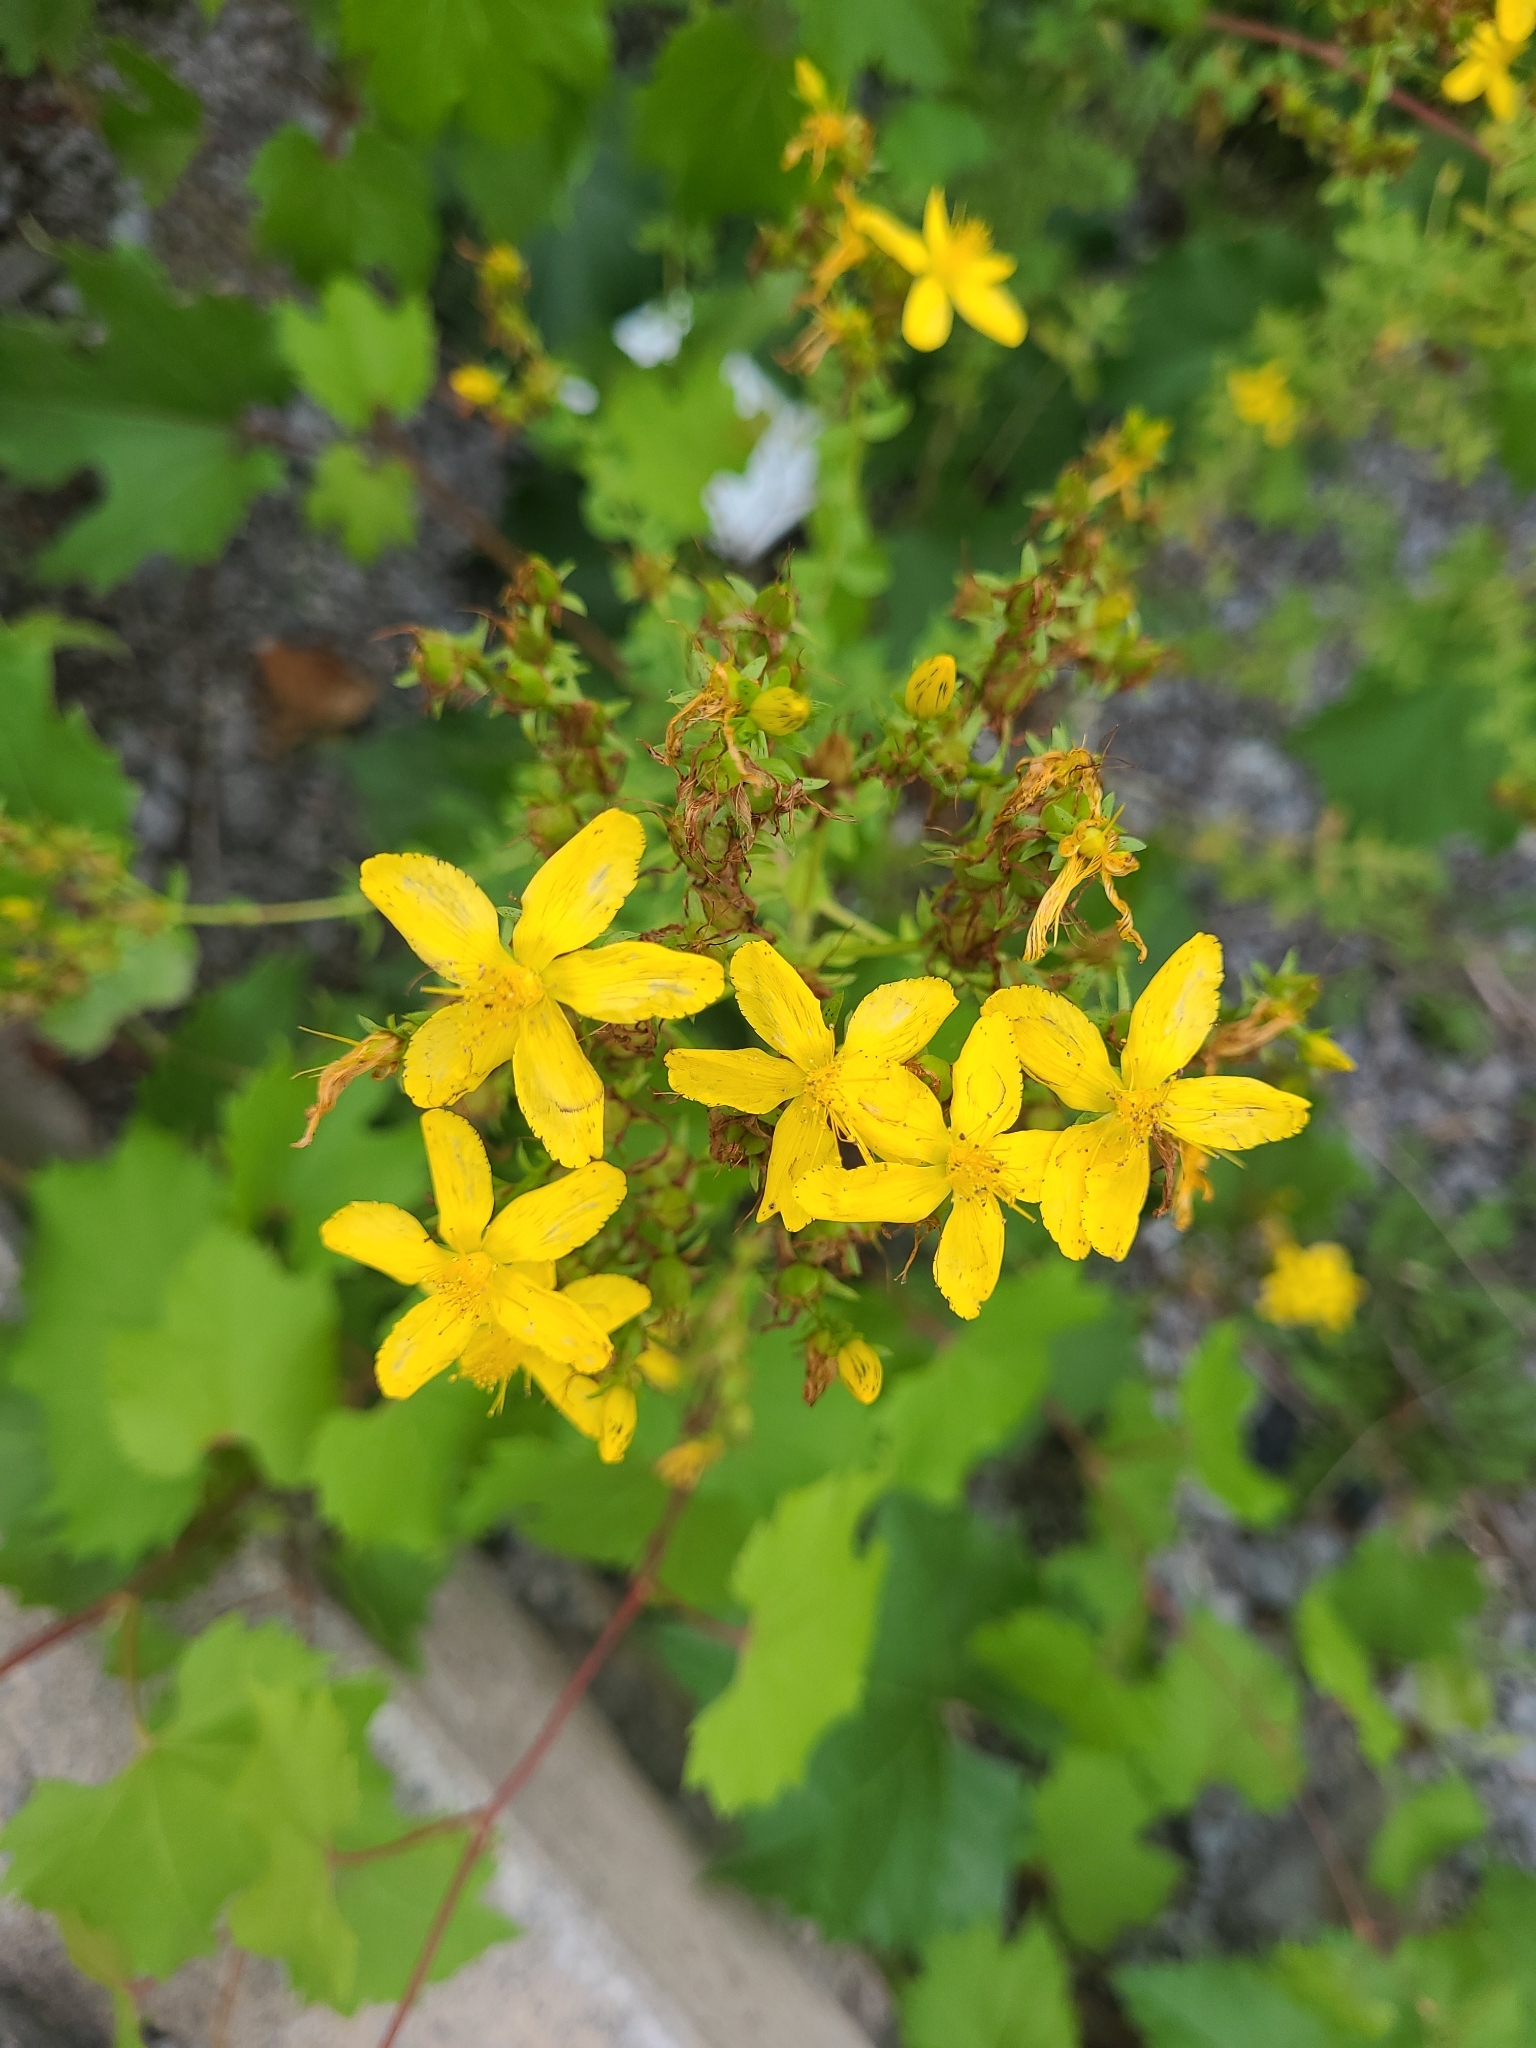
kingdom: Plantae
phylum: Tracheophyta
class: Magnoliopsida
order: Malpighiales
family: Hypericaceae
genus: Hypericum
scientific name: Hypericum perforatum
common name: Common st. johnswort
